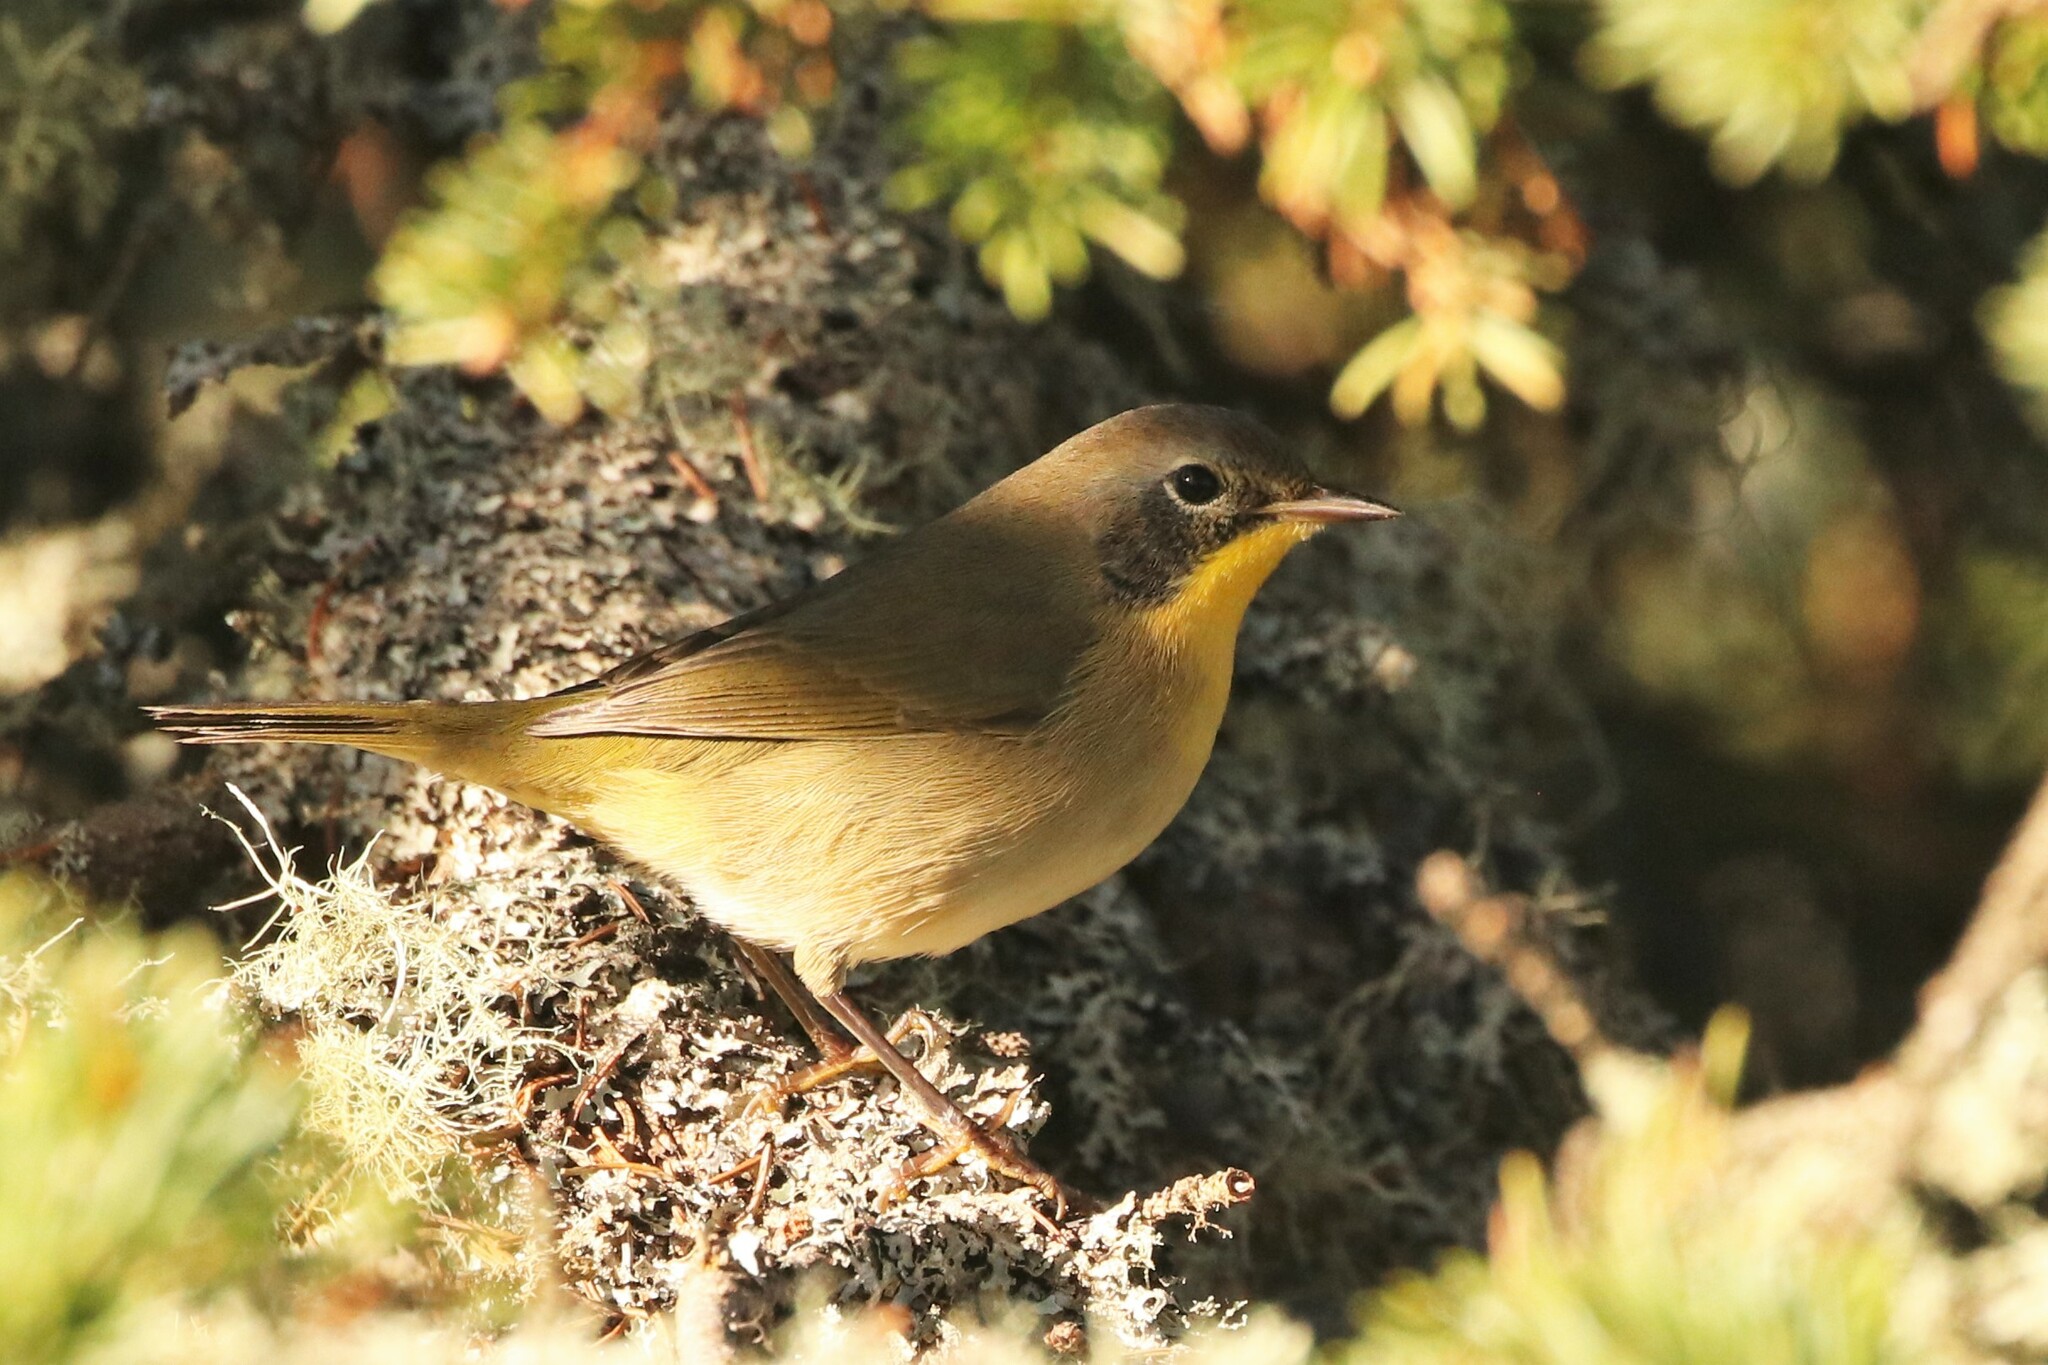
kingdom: Animalia
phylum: Chordata
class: Aves
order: Passeriformes
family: Parulidae
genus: Geothlypis
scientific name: Geothlypis trichas
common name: Common yellowthroat
